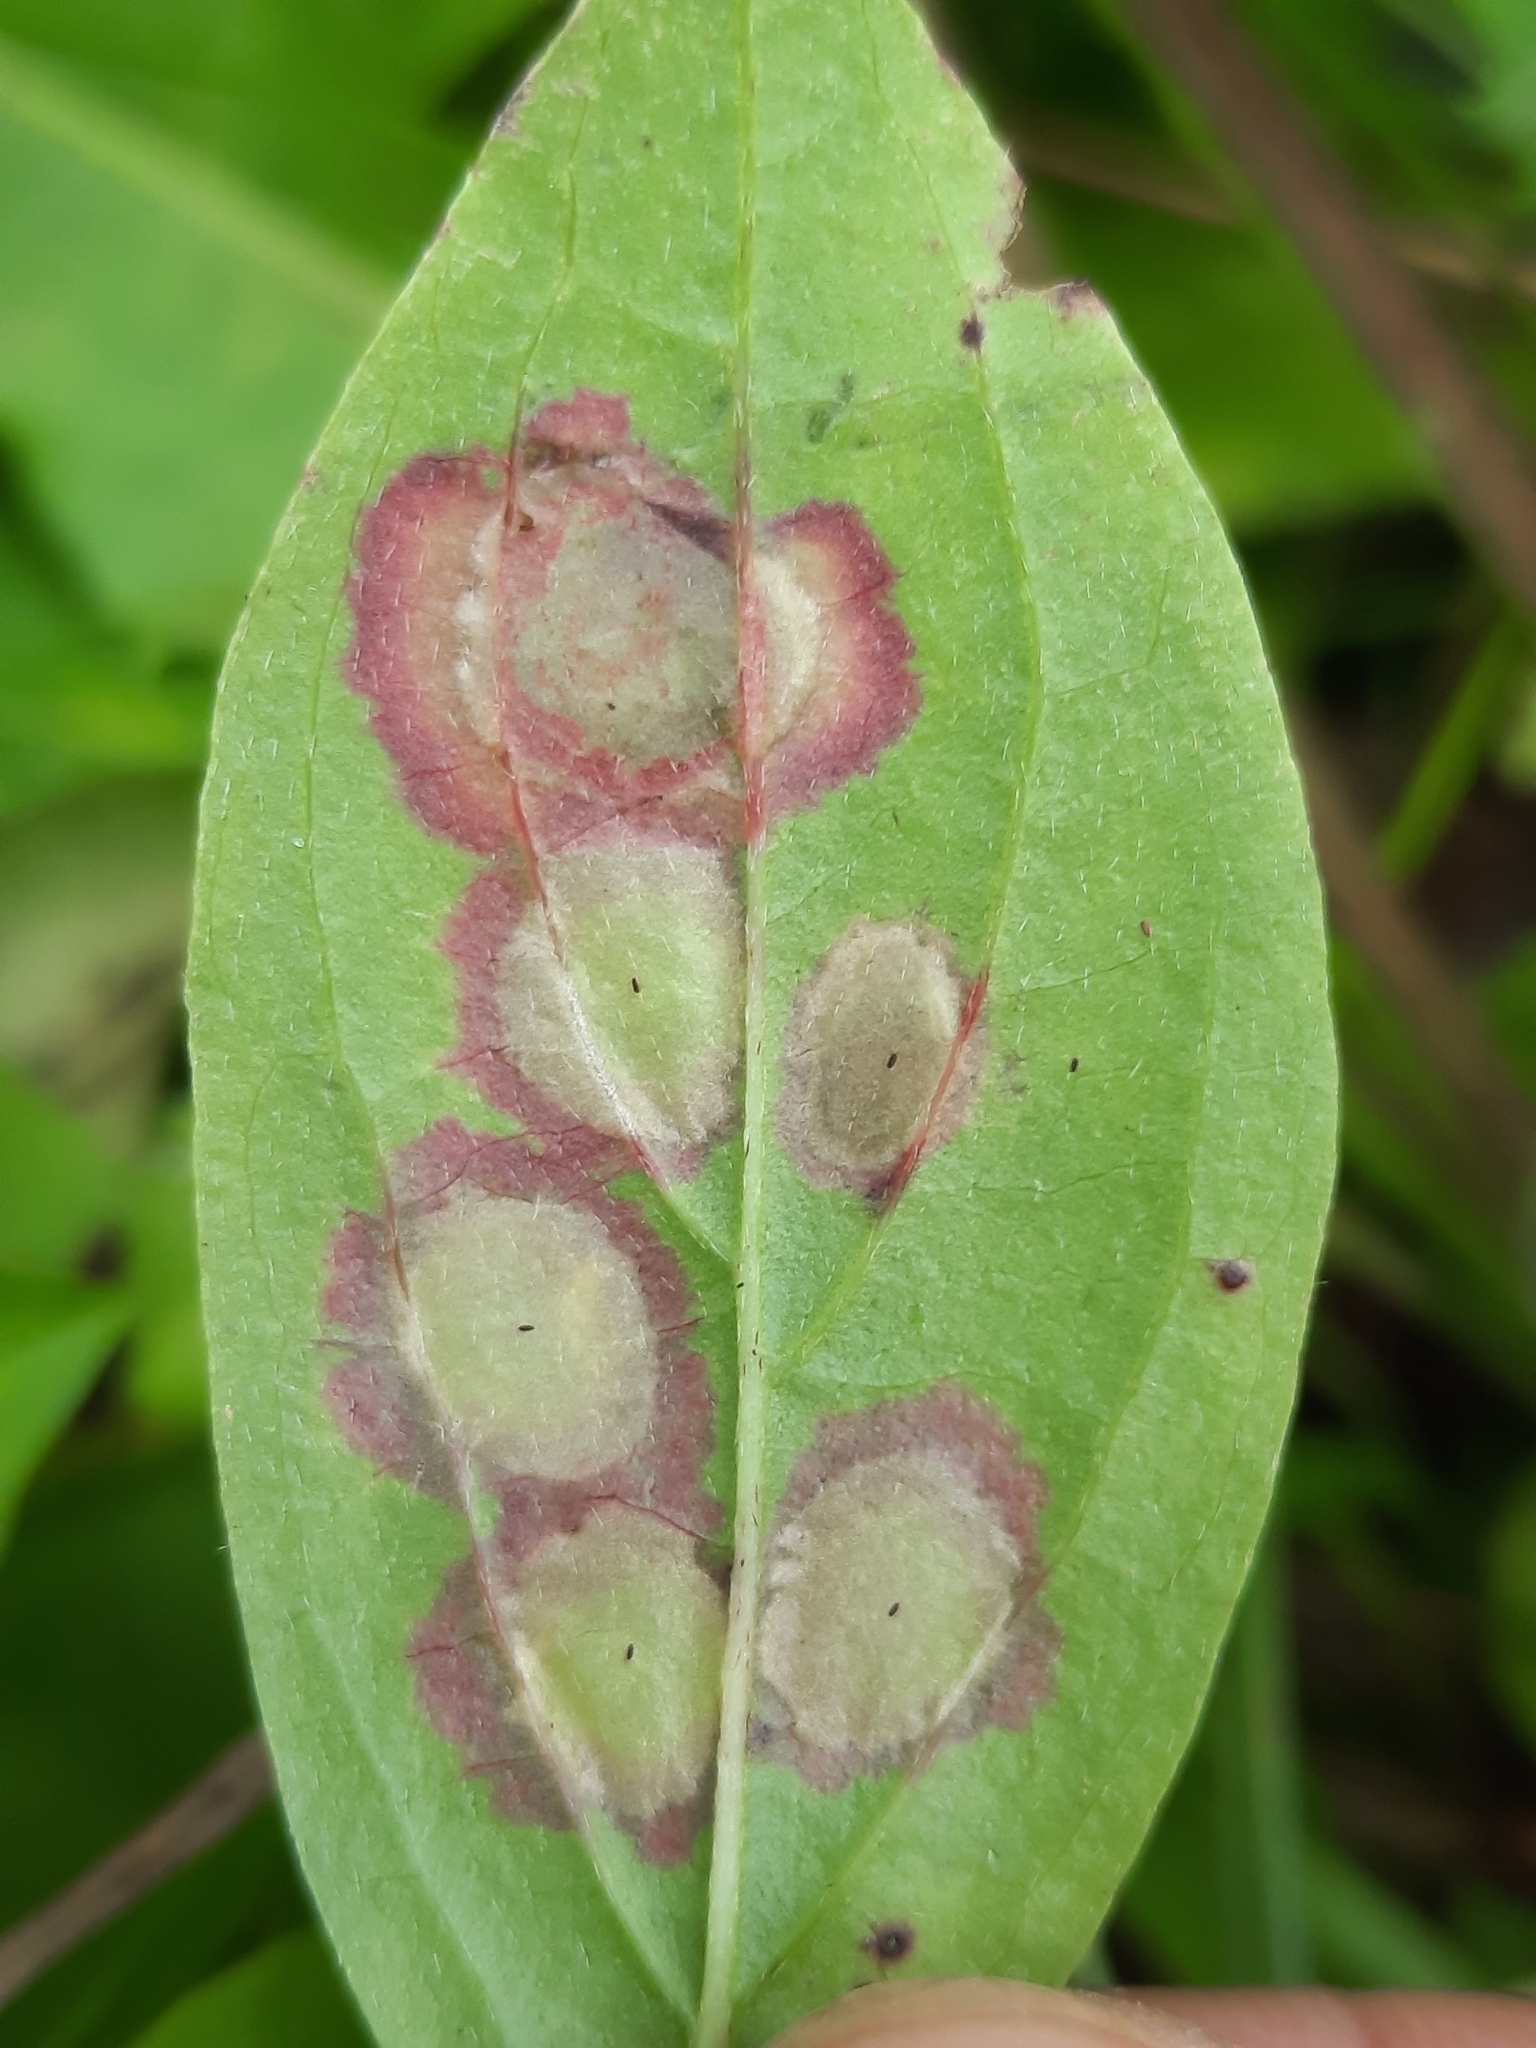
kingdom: Animalia
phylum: Arthropoda
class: Insecta
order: Diptera
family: Cecidomyiidae
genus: Parallelodiplosis
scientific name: Parallelodiplosis subtruncata
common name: Dogwood eyespot gall midge
